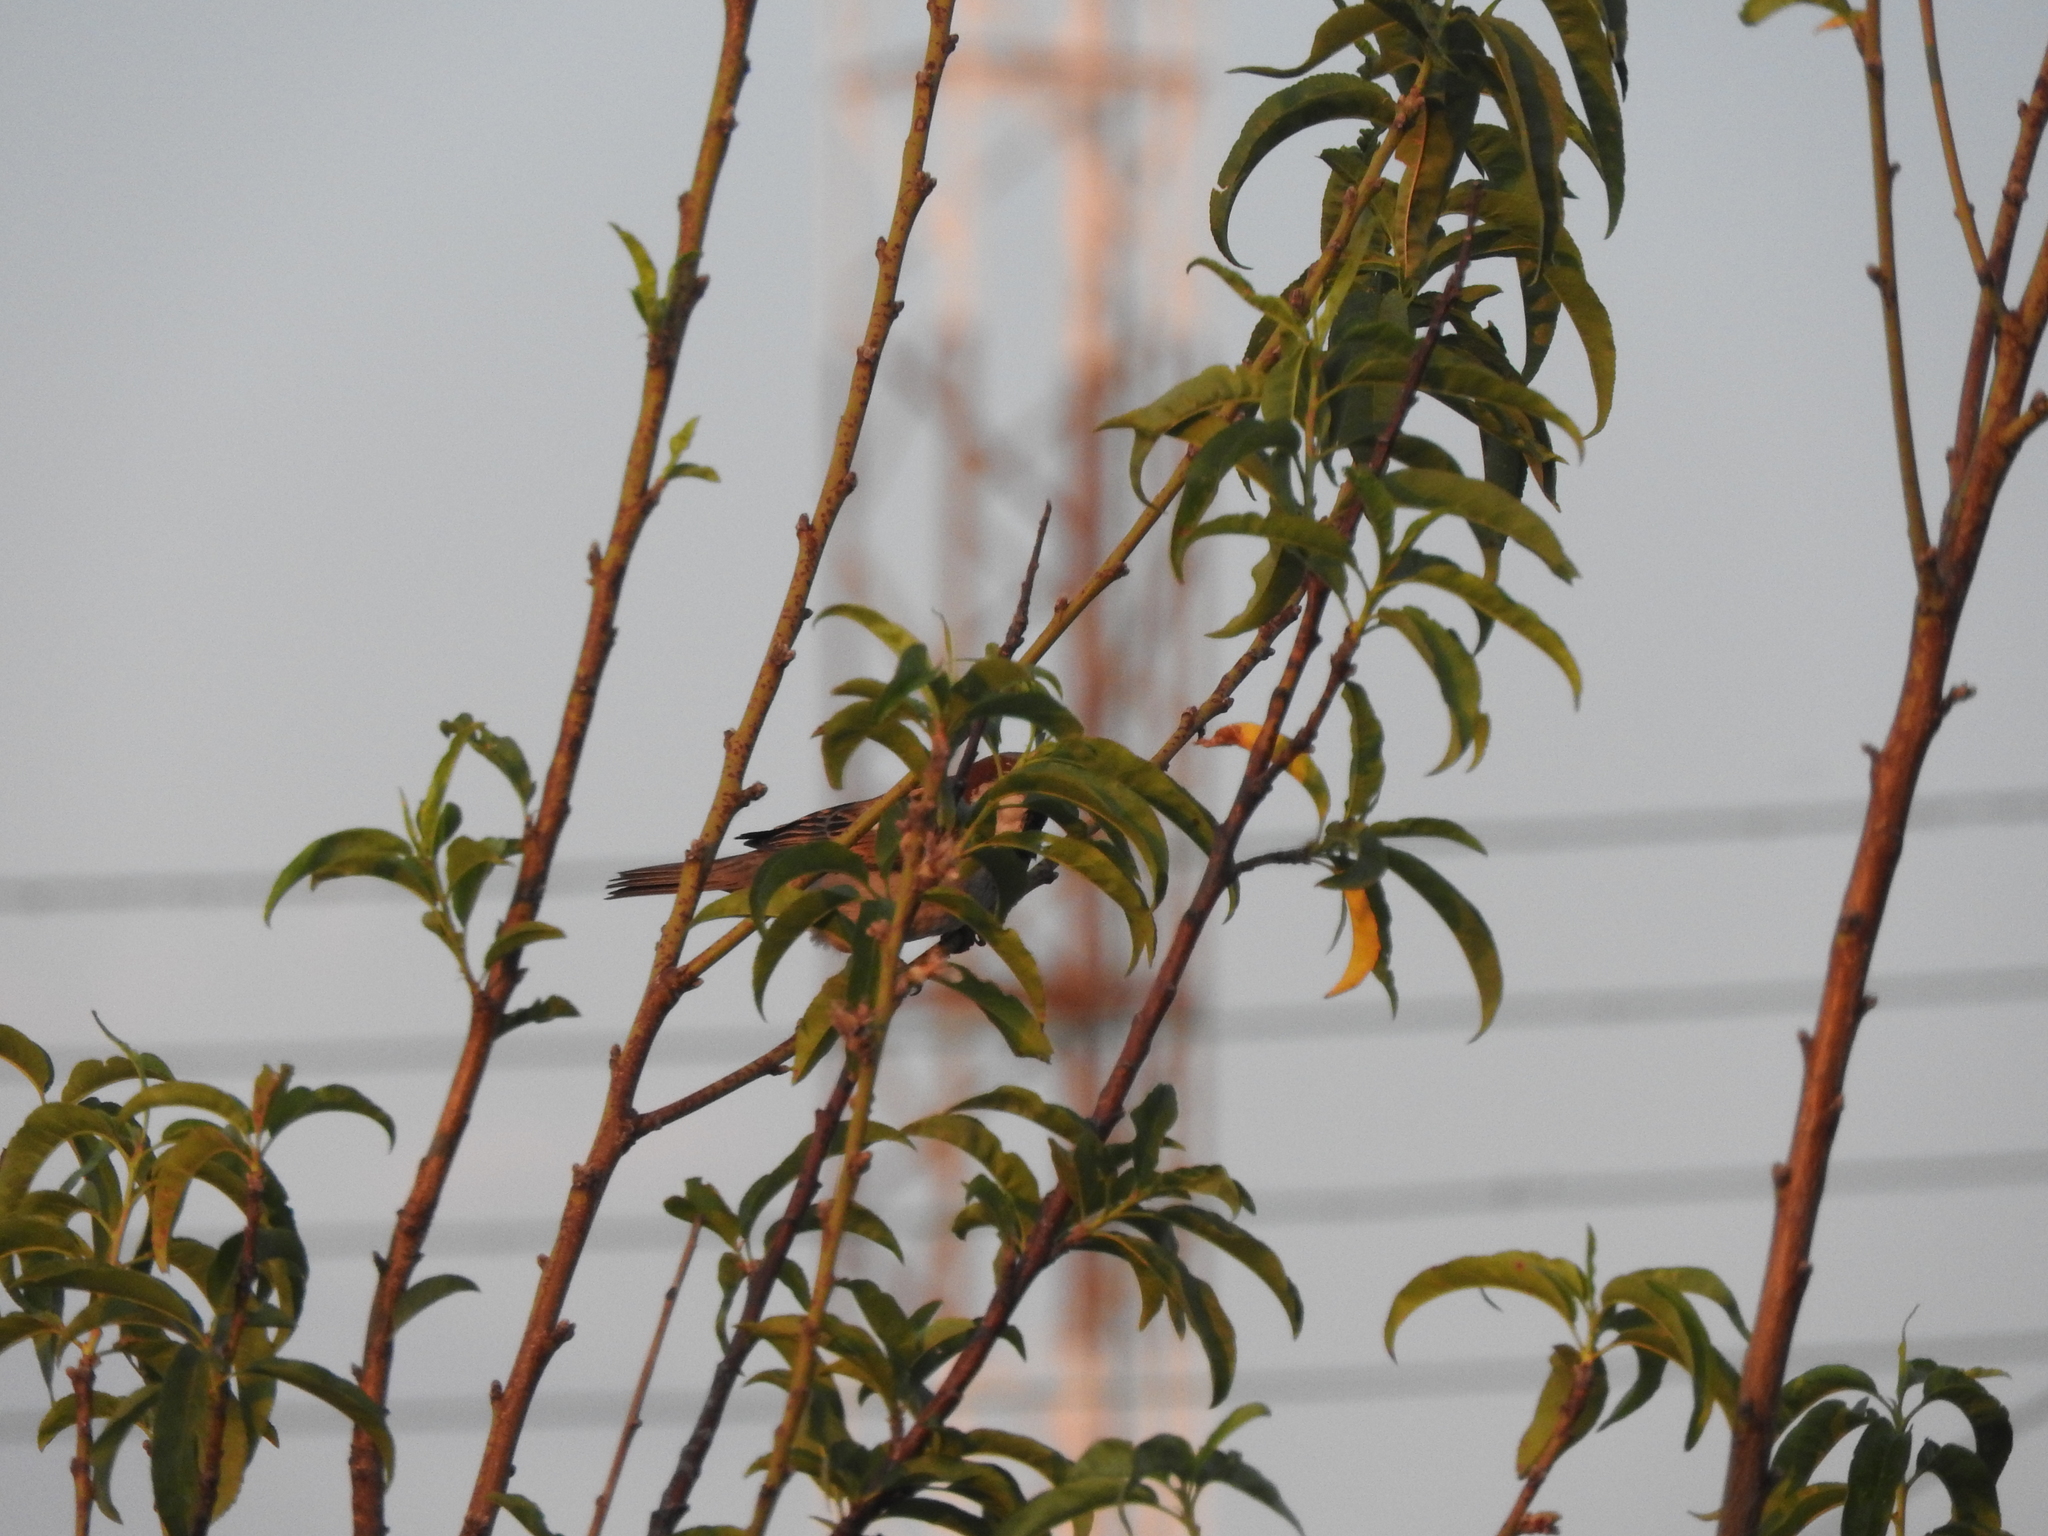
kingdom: Animalia
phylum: Chordata
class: Aves
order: Passeriformes
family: Fringillidae
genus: Haemorhous
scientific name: Haemorhous mexicanus
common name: House finch
